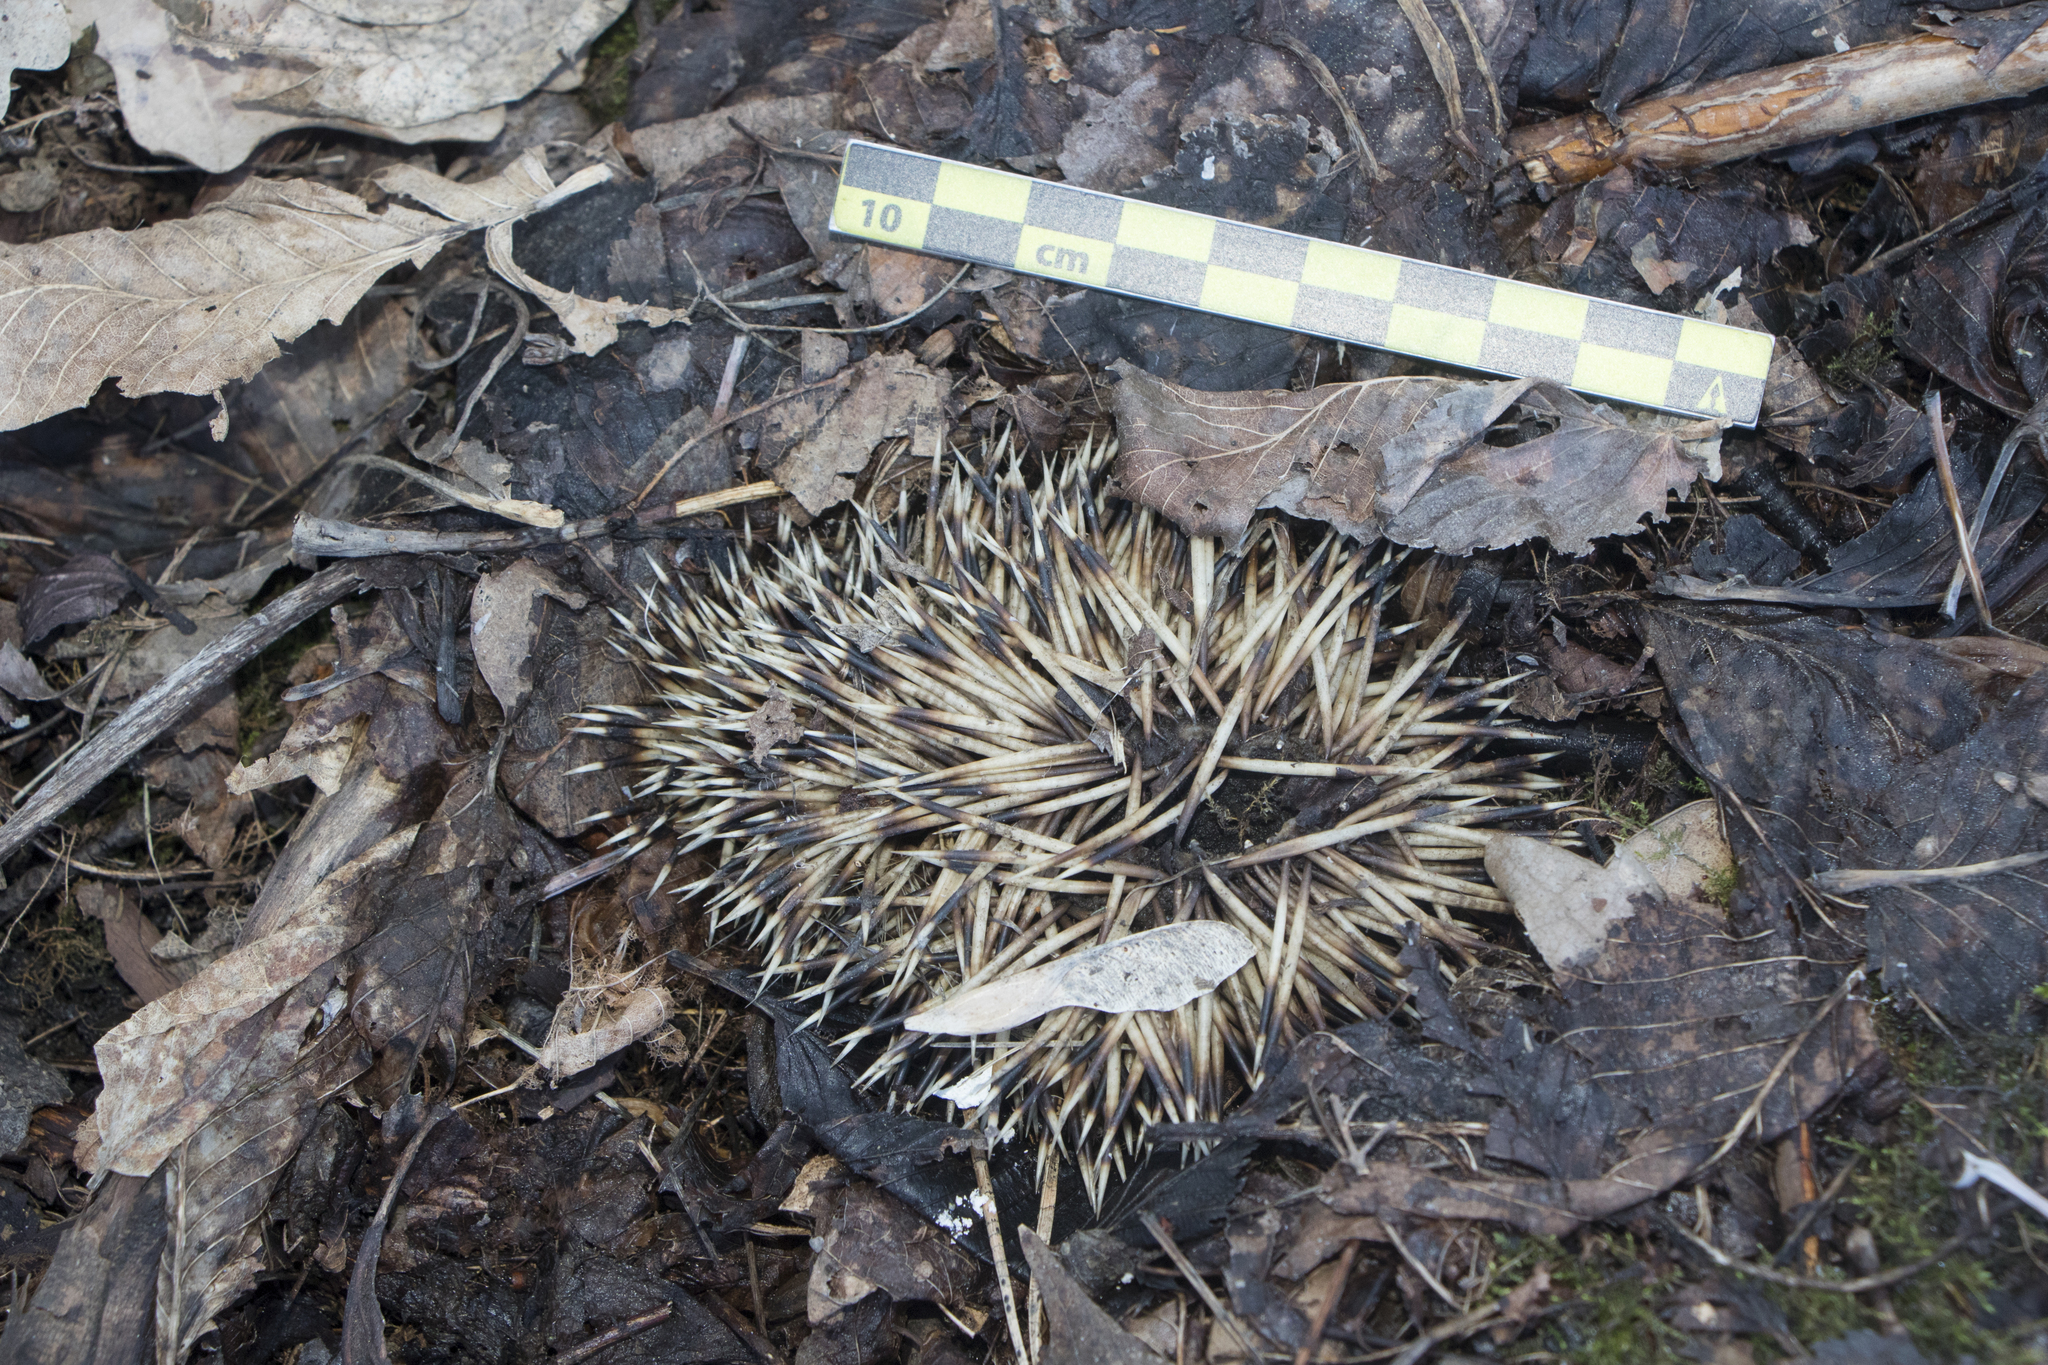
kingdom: Animalia
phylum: Chordata
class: Mammalia
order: Erinaceomorpha
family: Erinaceidae
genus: Erinaceus
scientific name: Erinaceus roumanicus
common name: Northern white-breasted hedgehog
